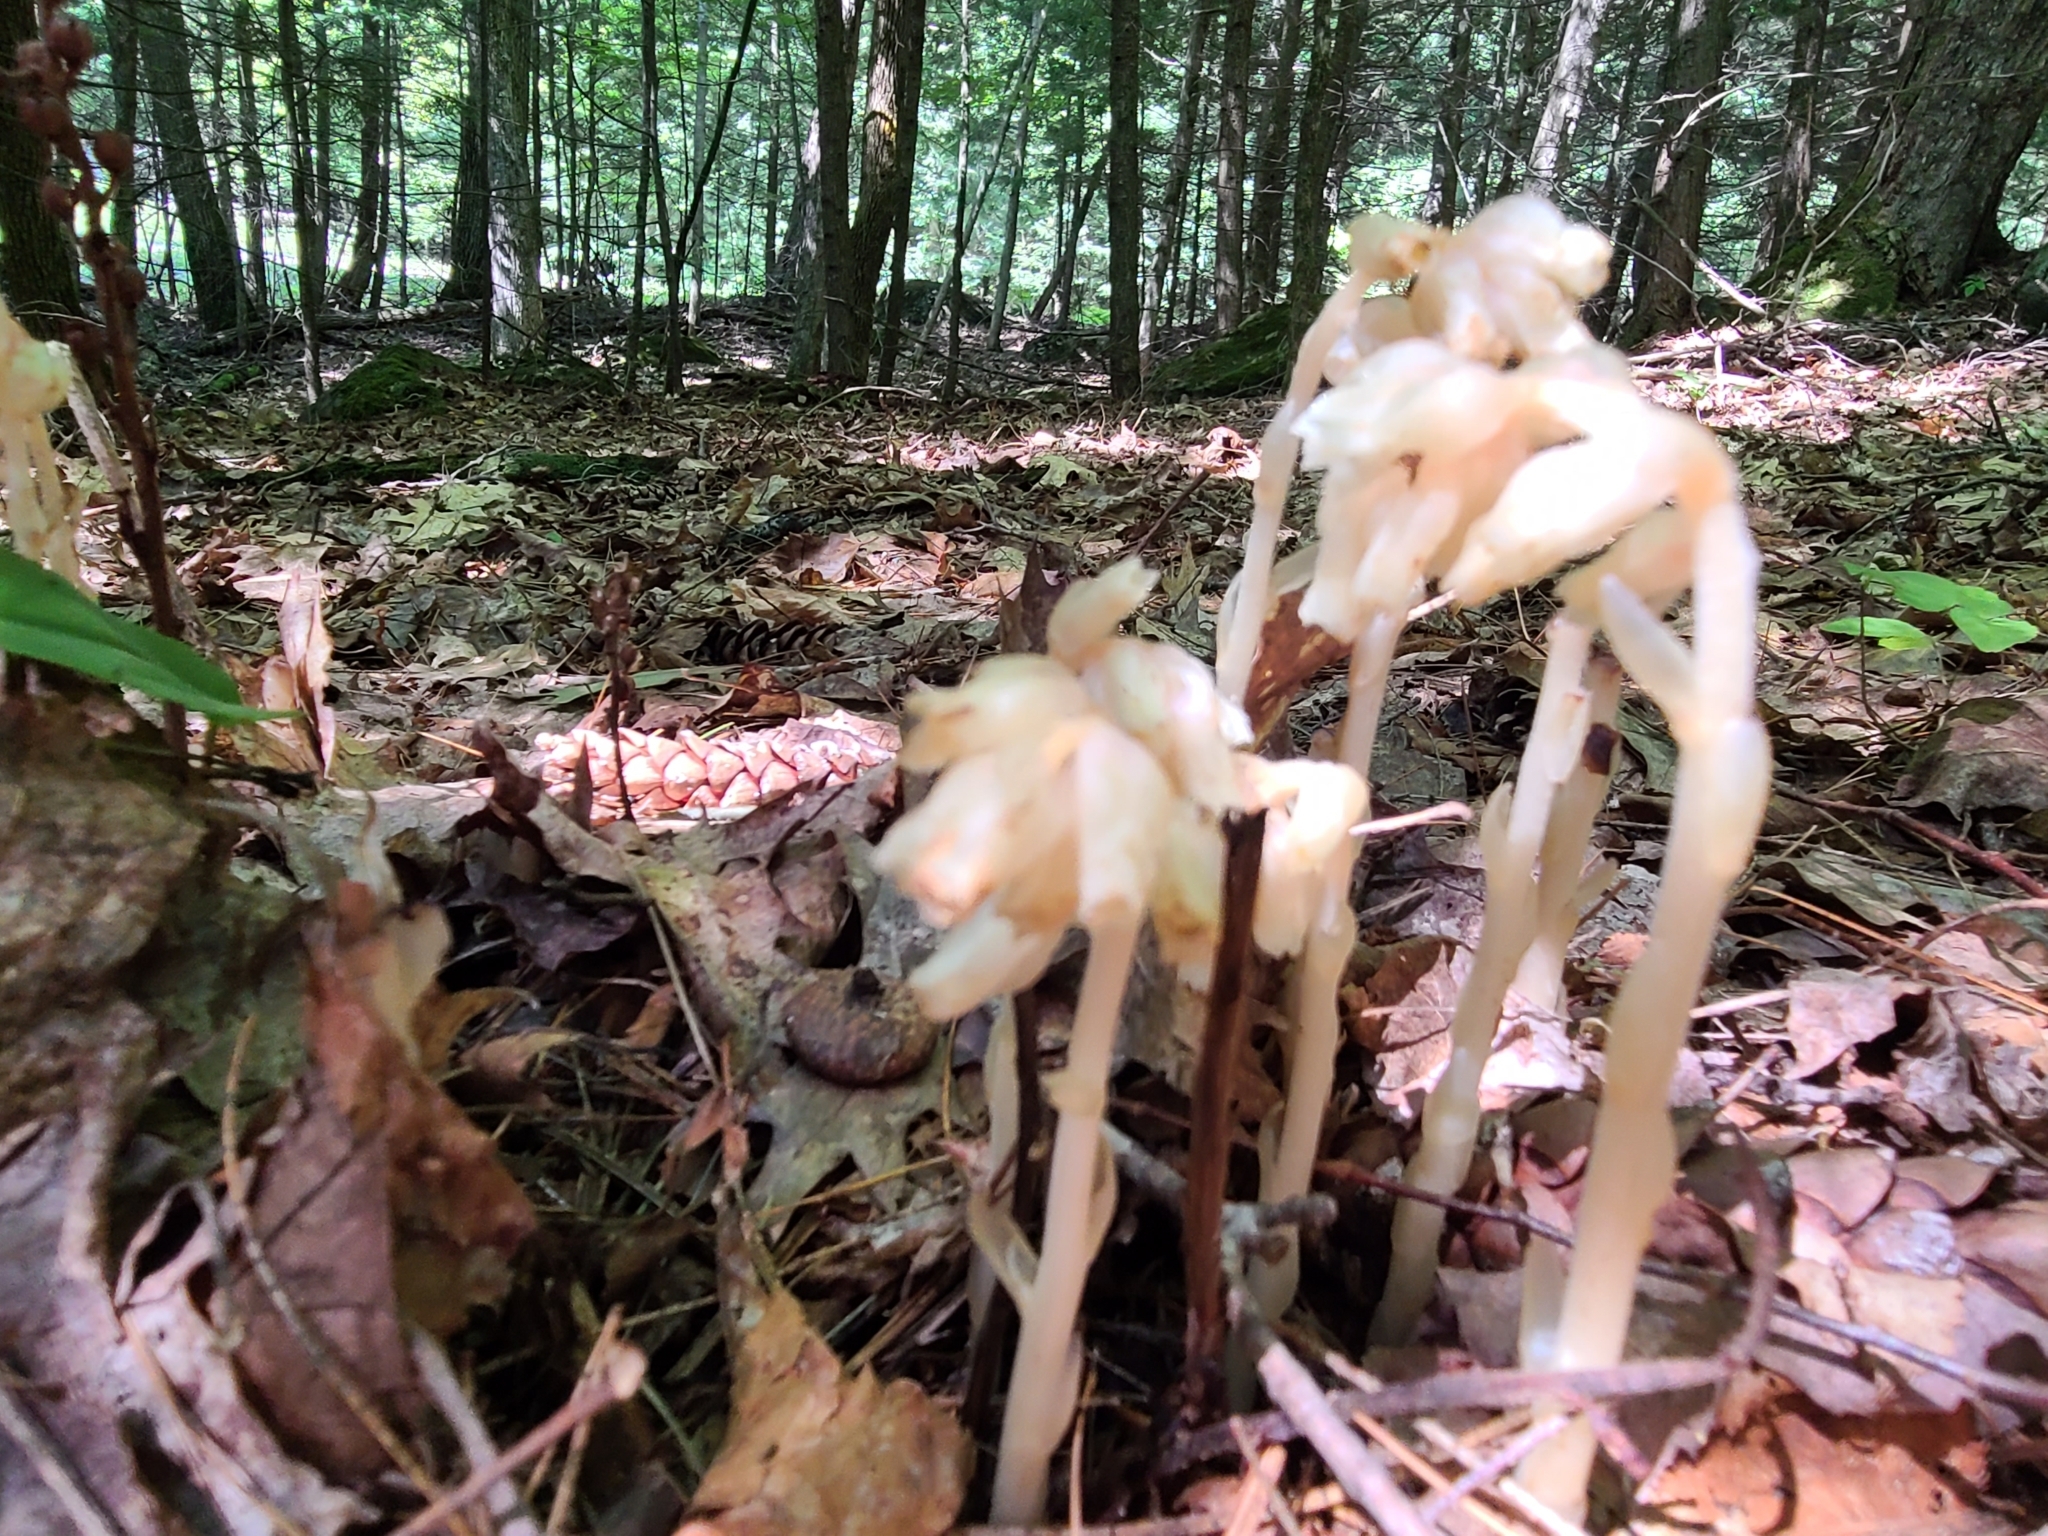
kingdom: Plantae
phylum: Tracheophyta
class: Magnoliopsida
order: Ericales
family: Ericaceae
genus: Hypopitys
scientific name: Hypopitys monotropa
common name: Yellow bird's-nest
